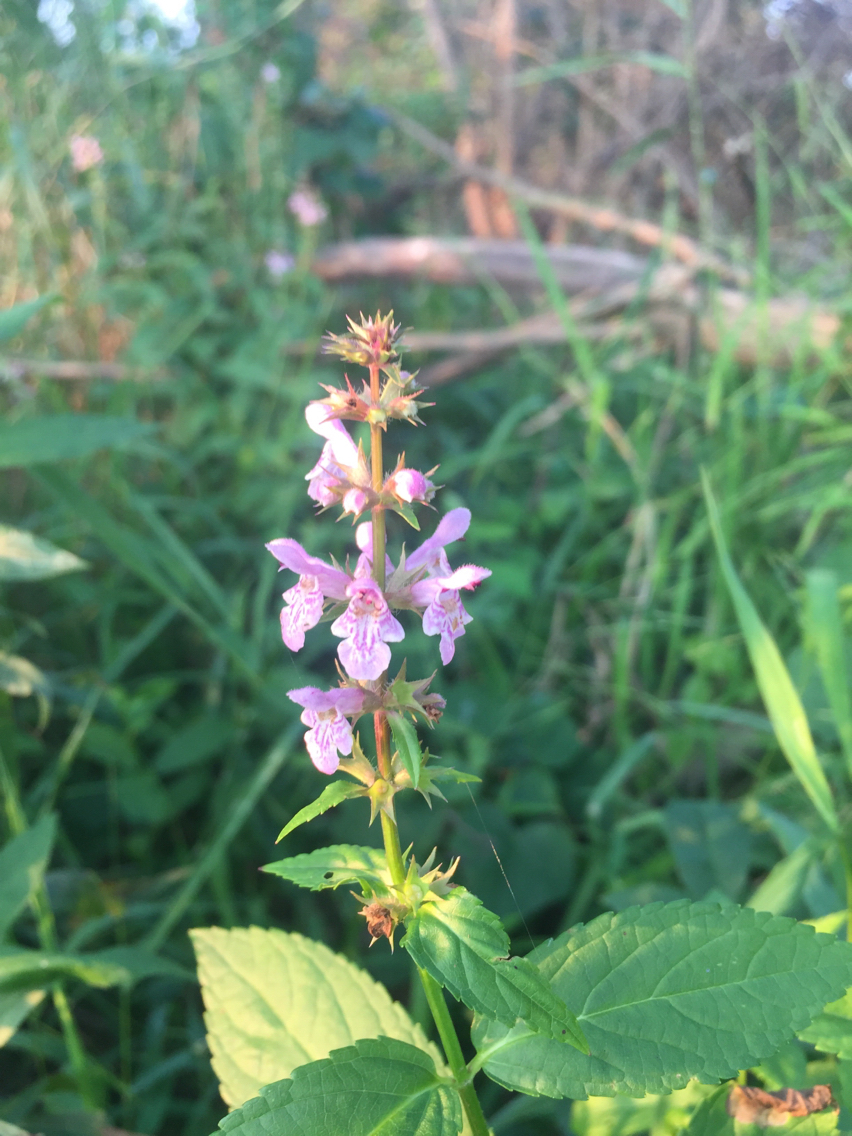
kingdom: Plantae
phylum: Tracheophyta
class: Magnoliopsida
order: Lamiales
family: Lamiaceae
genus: Stachys
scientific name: Stachys tenuifolia
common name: Smooth hedge-nettle
